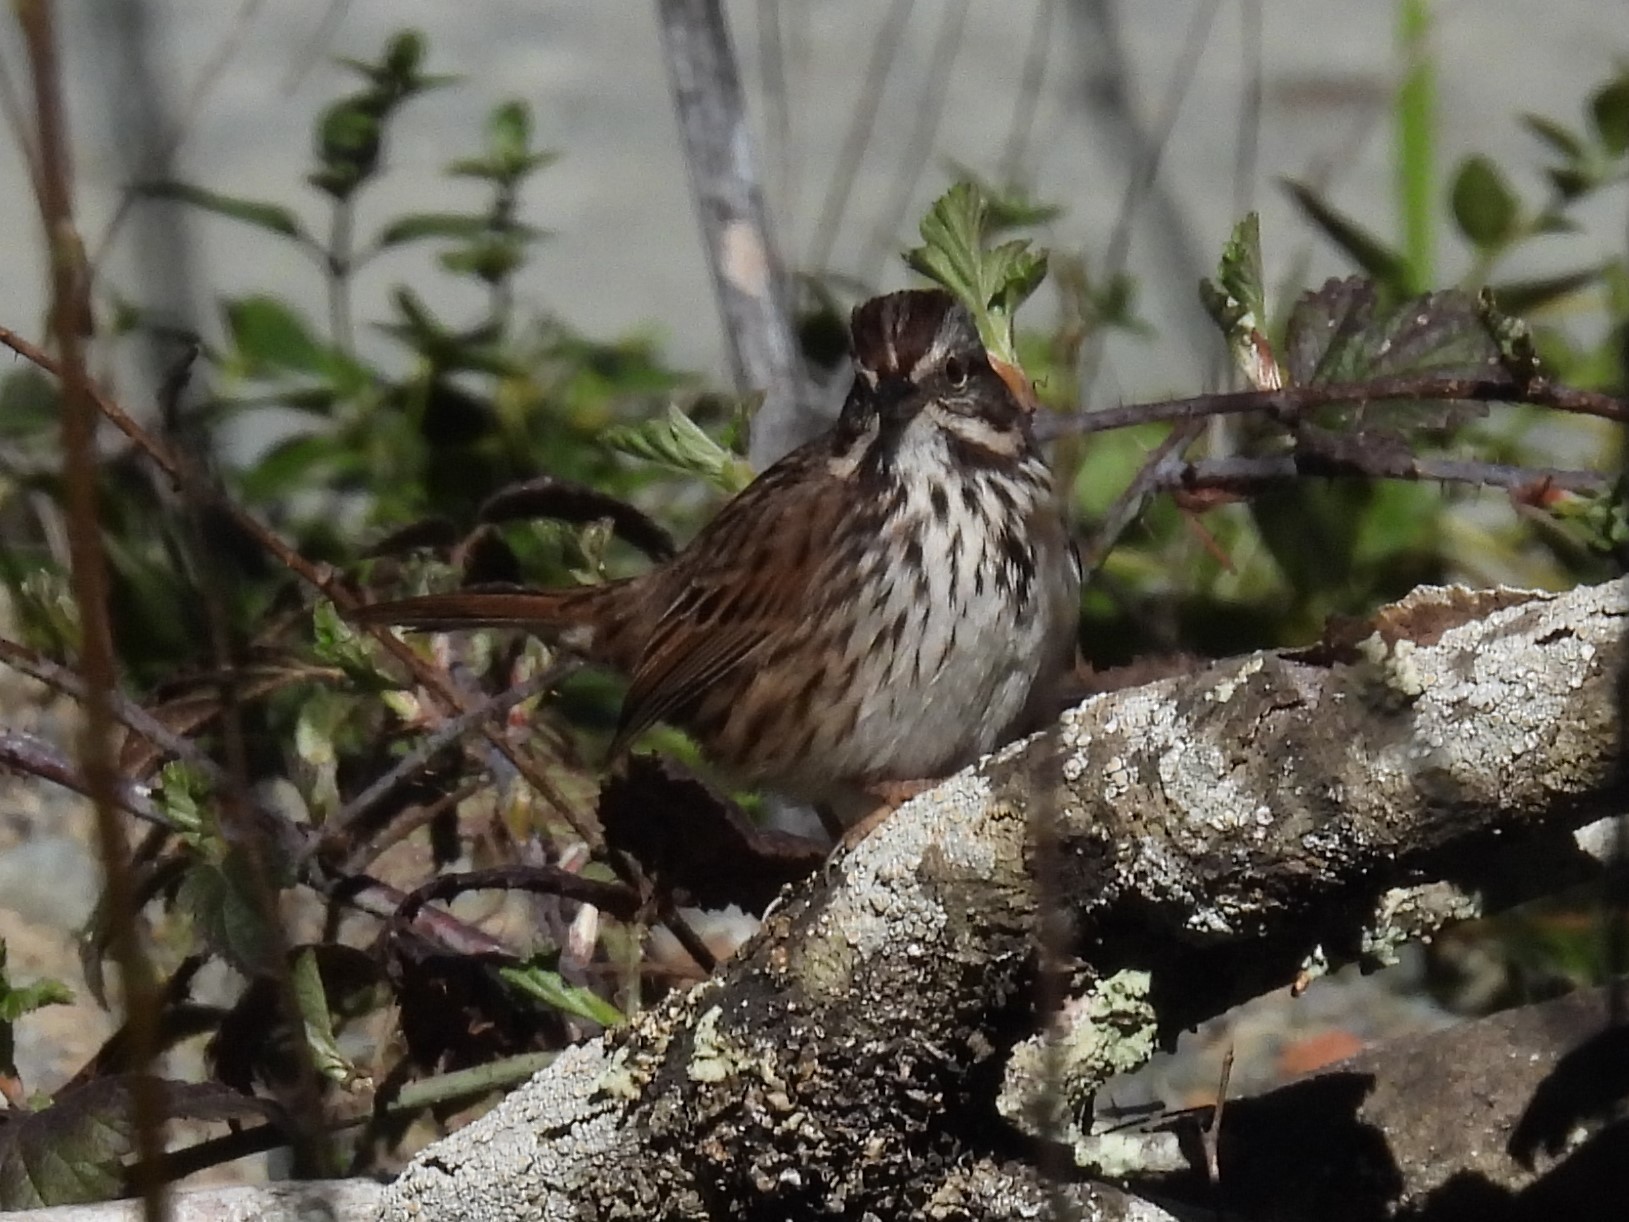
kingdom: Animalia
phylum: Chordata
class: Aves
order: Passeriformes
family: Passerellidae
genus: Melospiza
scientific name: Melospiza melodia
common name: Song sparrow
